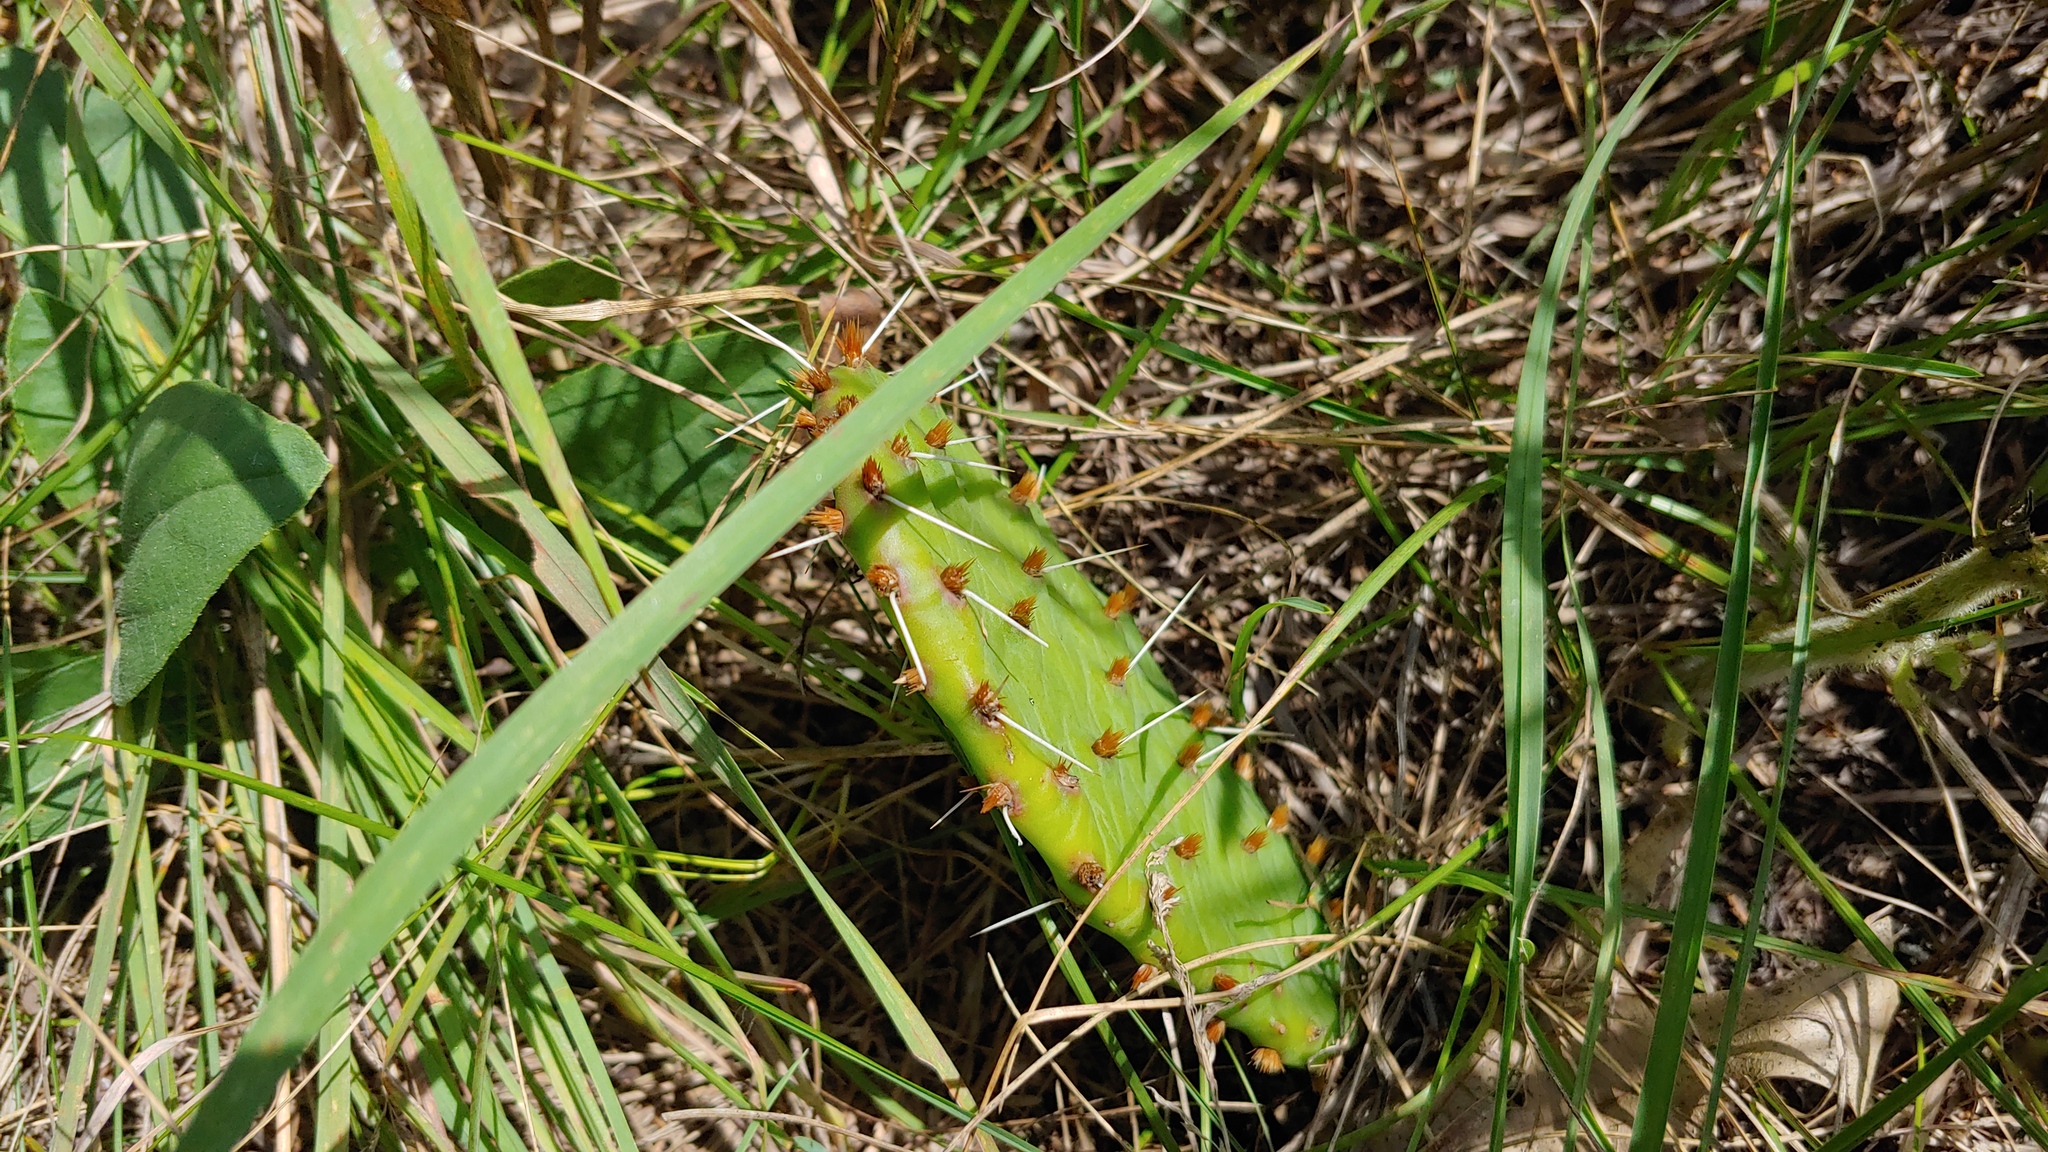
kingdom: Plantae
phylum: Tracheophyta
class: Magnoliopsida
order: Caryophyllales
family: Cactaceae
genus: Opuntia
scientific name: Opuntia macrorhiza
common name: Grassland pricklypear
